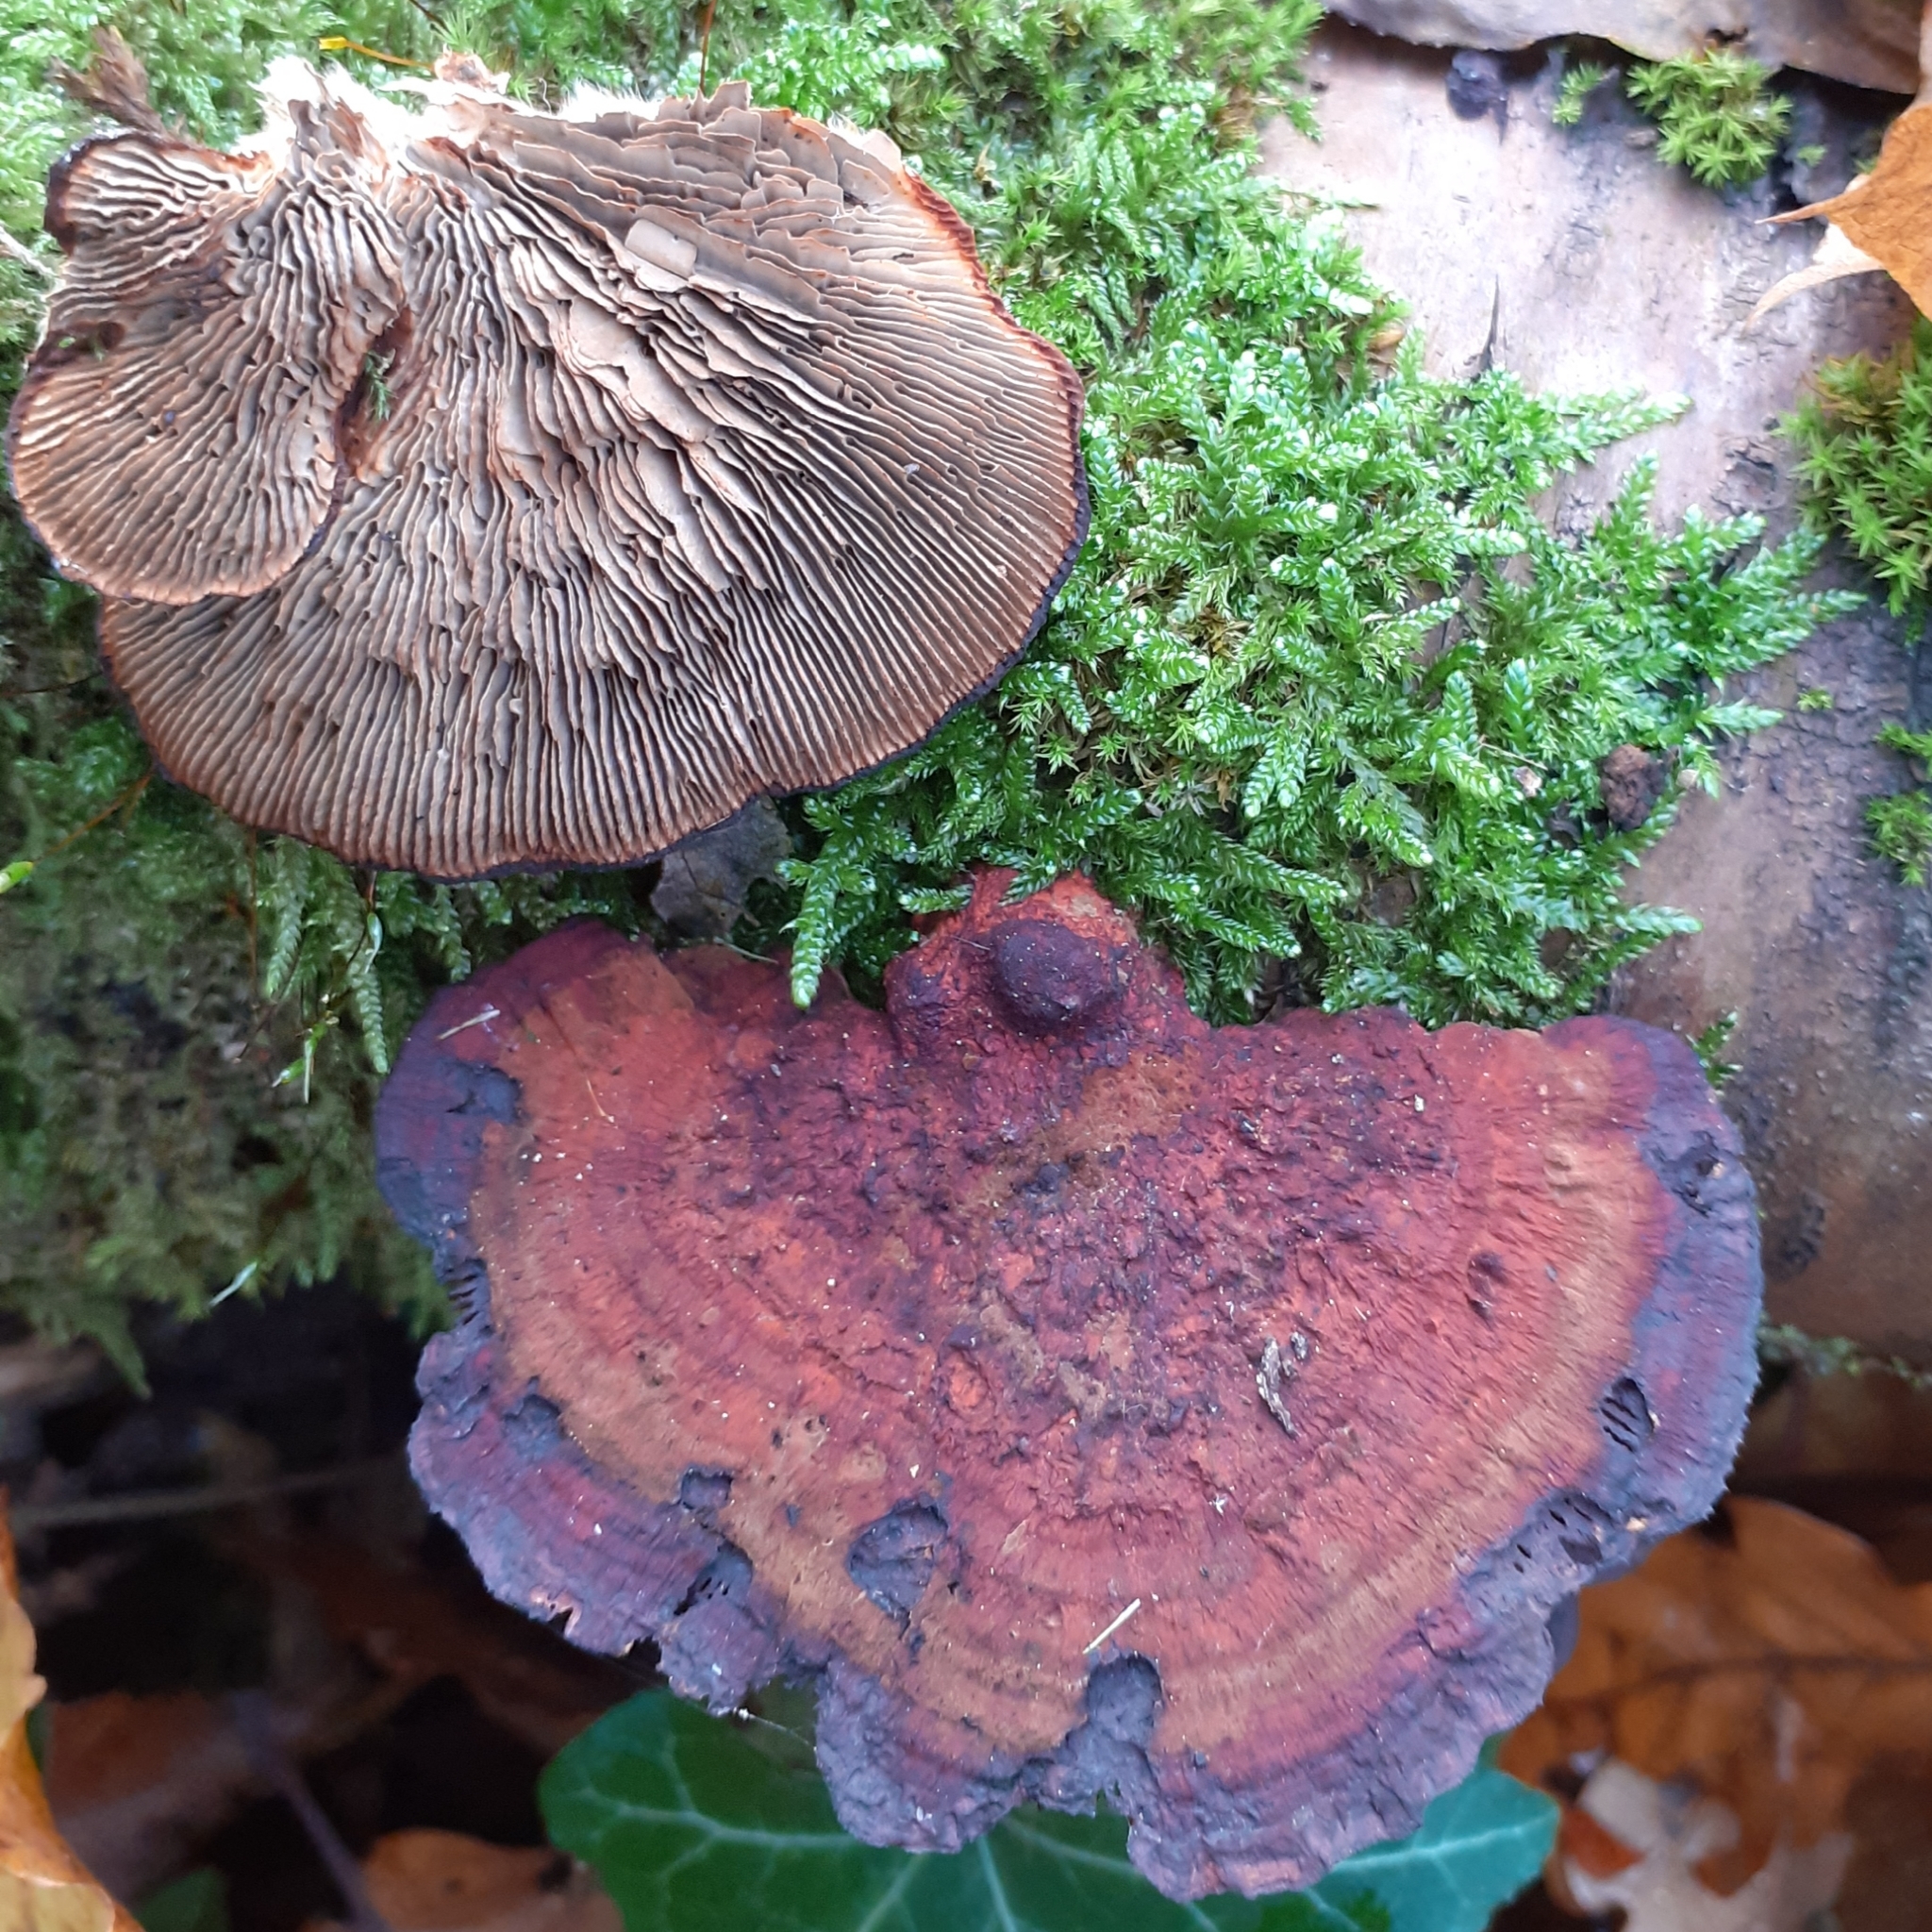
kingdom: Fungi
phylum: Basidiomycota
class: Agaricomycetes
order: Polyporales
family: Polyporaceae
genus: Daedaleopsis
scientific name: Daedaleopsis tricolor
